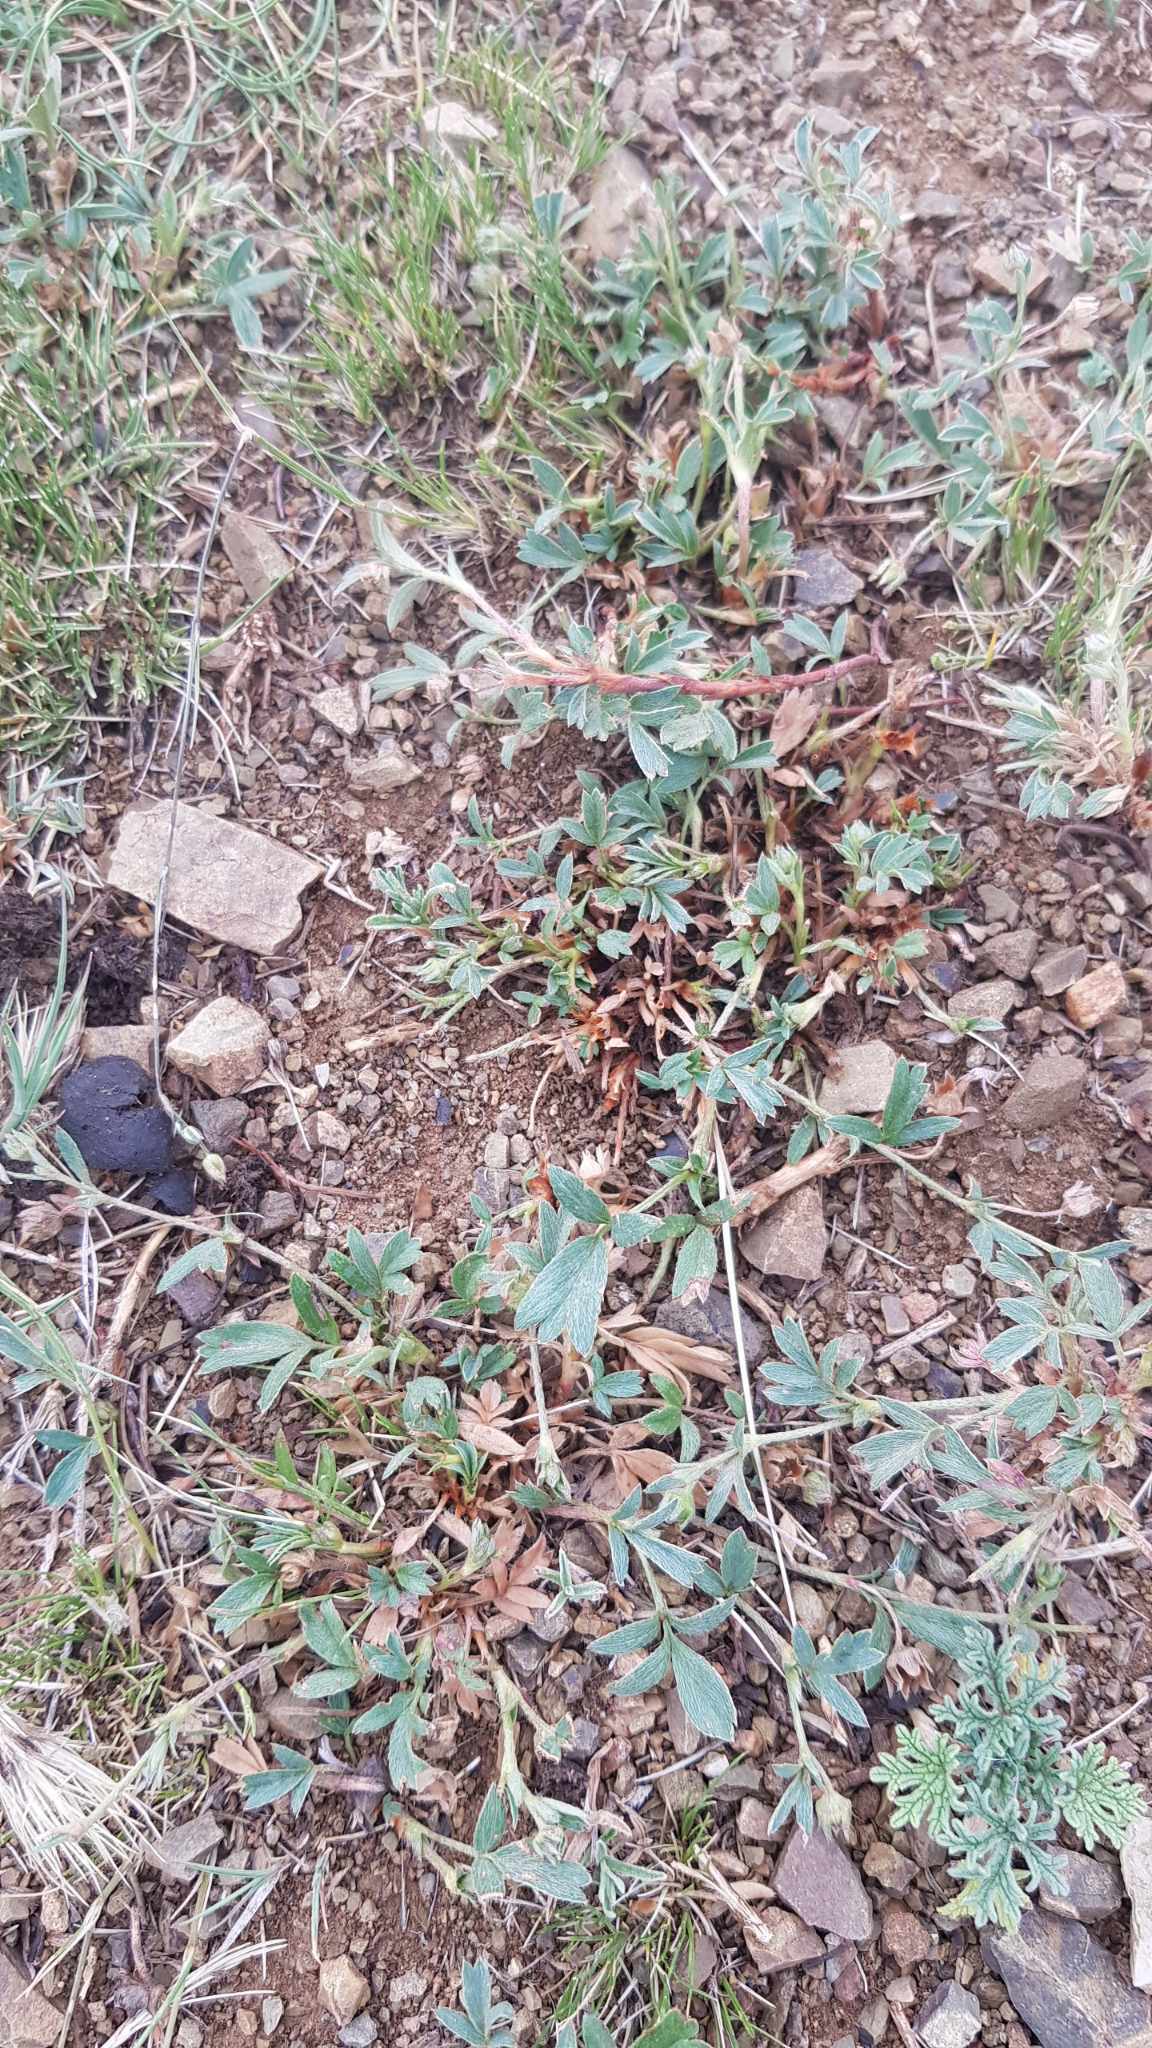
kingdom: Plantae
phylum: Tracheophyta
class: Magnoliopsida
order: Rosales
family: Rosaceae
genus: Sibbaldianthe
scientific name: Sibbaldianthe adpressa
